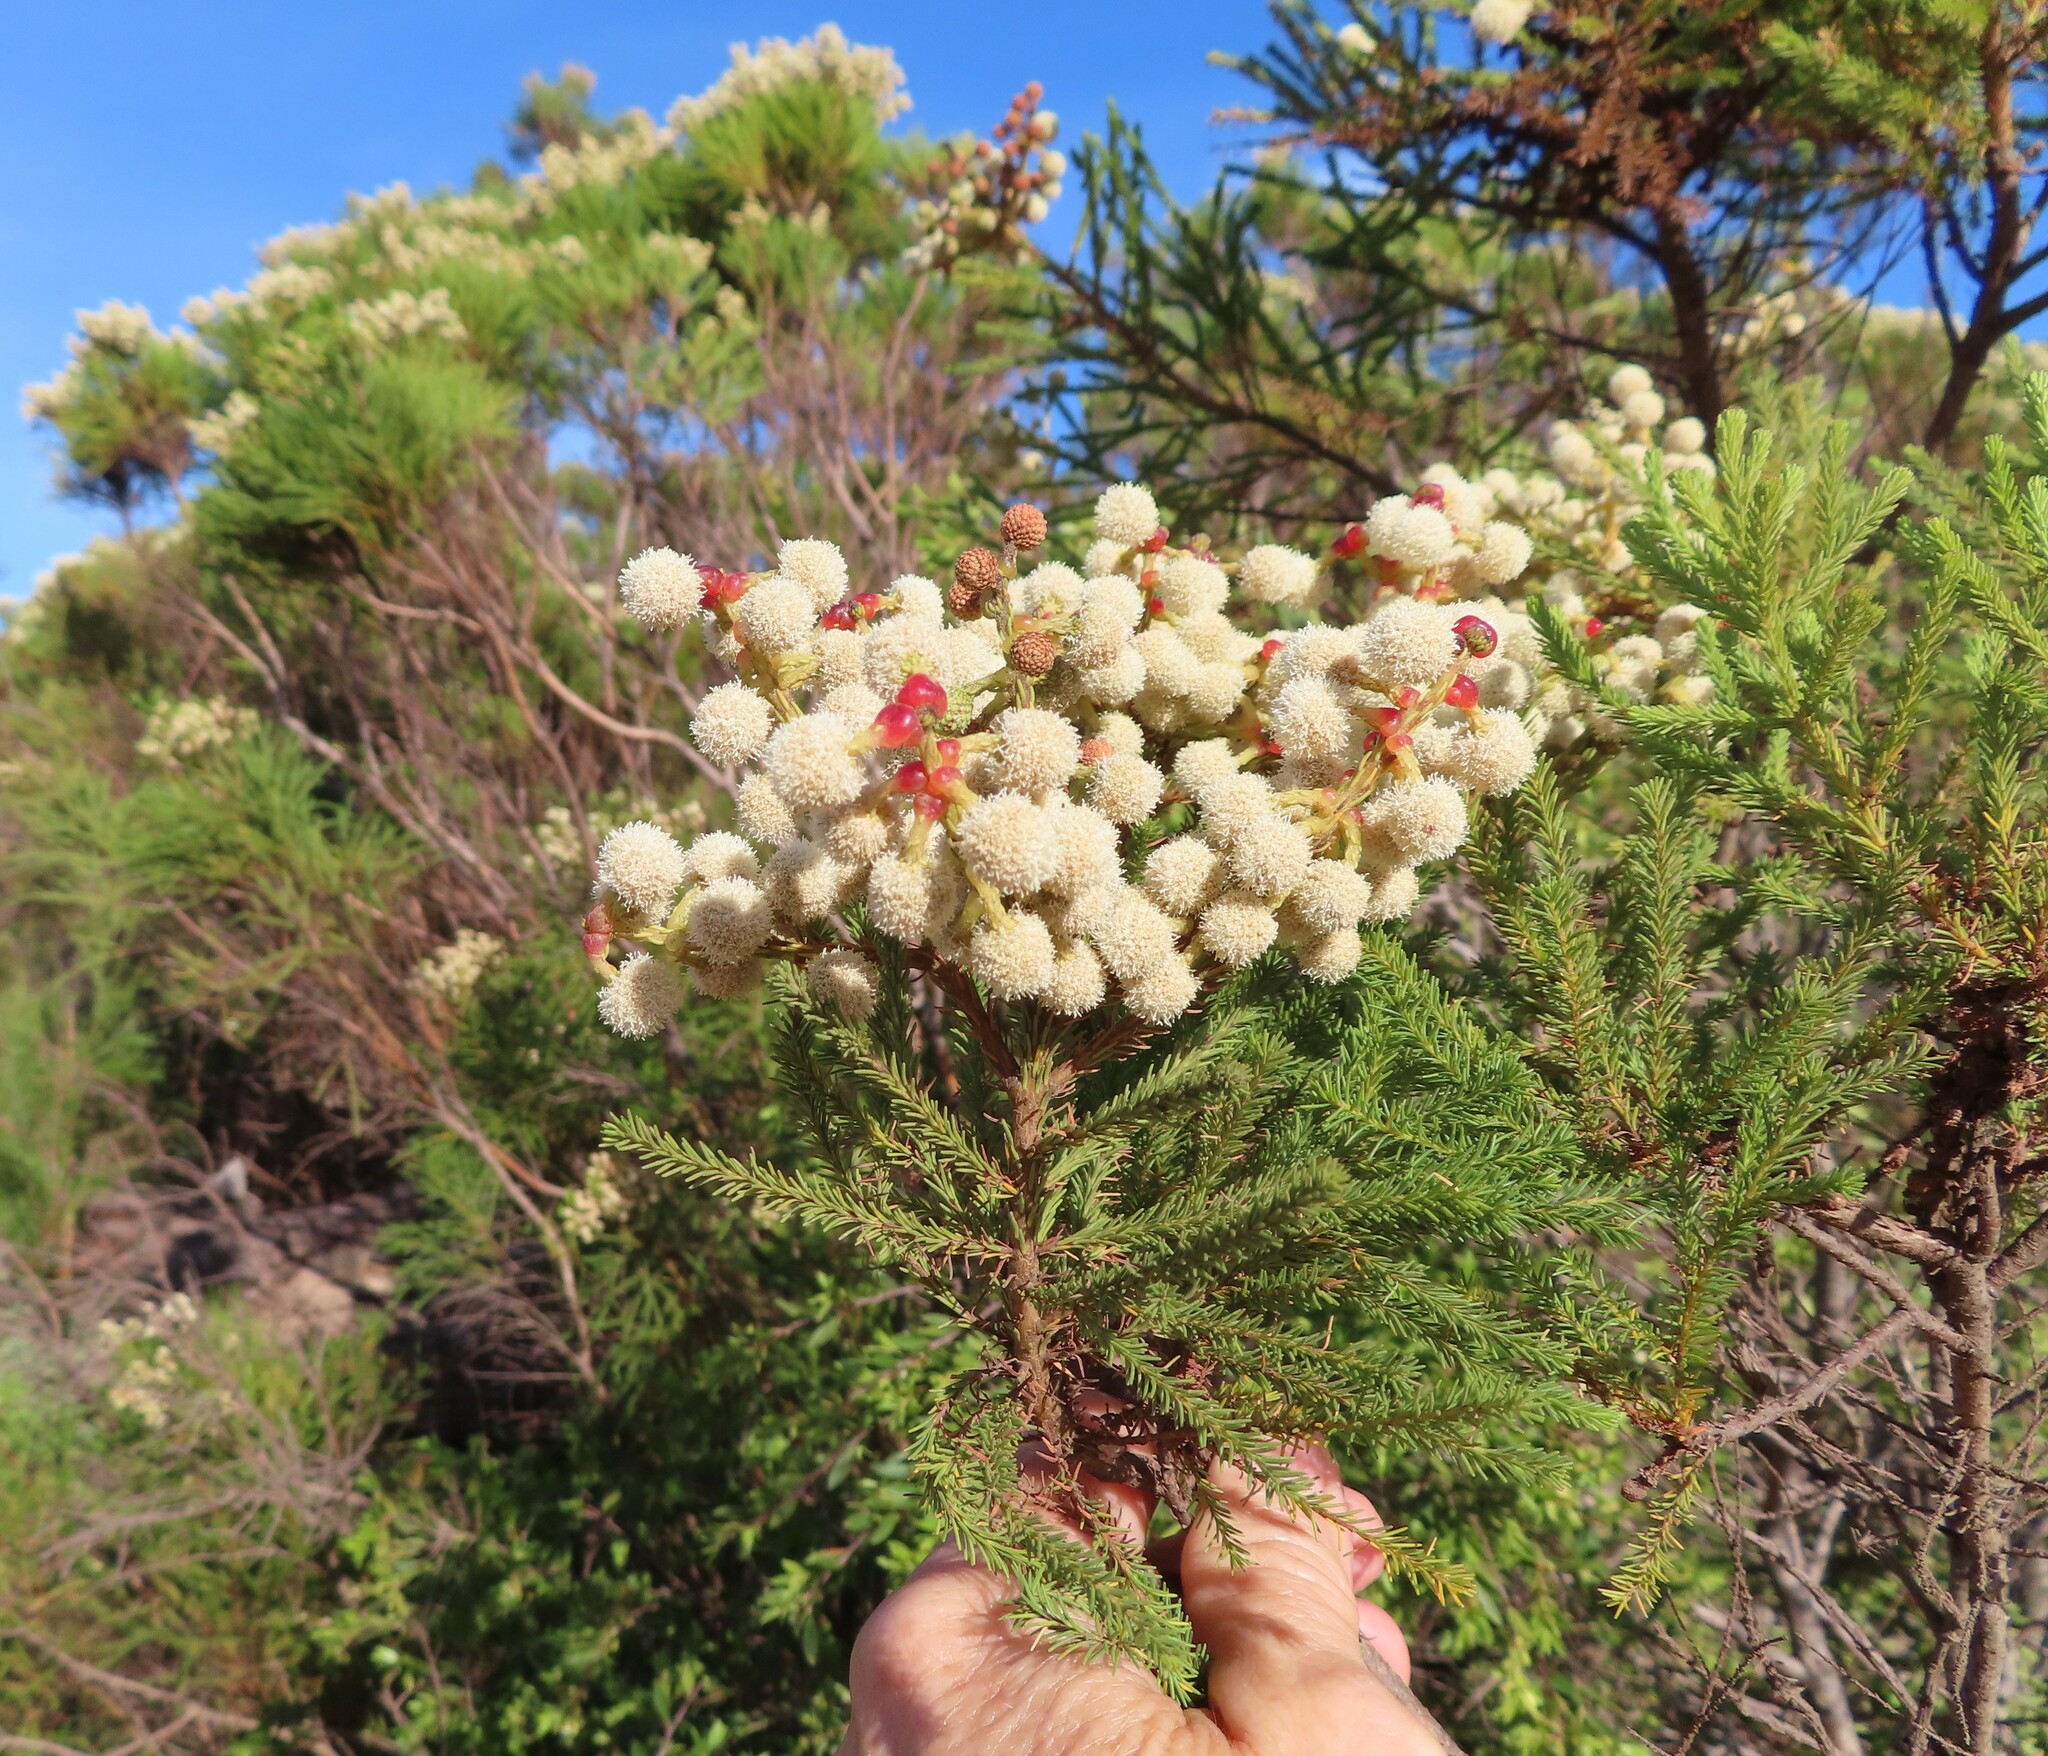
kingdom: Plantae
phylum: Tracheophyta
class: Magnoliopsida
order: Bruniales
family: Bruniaceae
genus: Berzelia
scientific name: Berzelia lanuginosa
